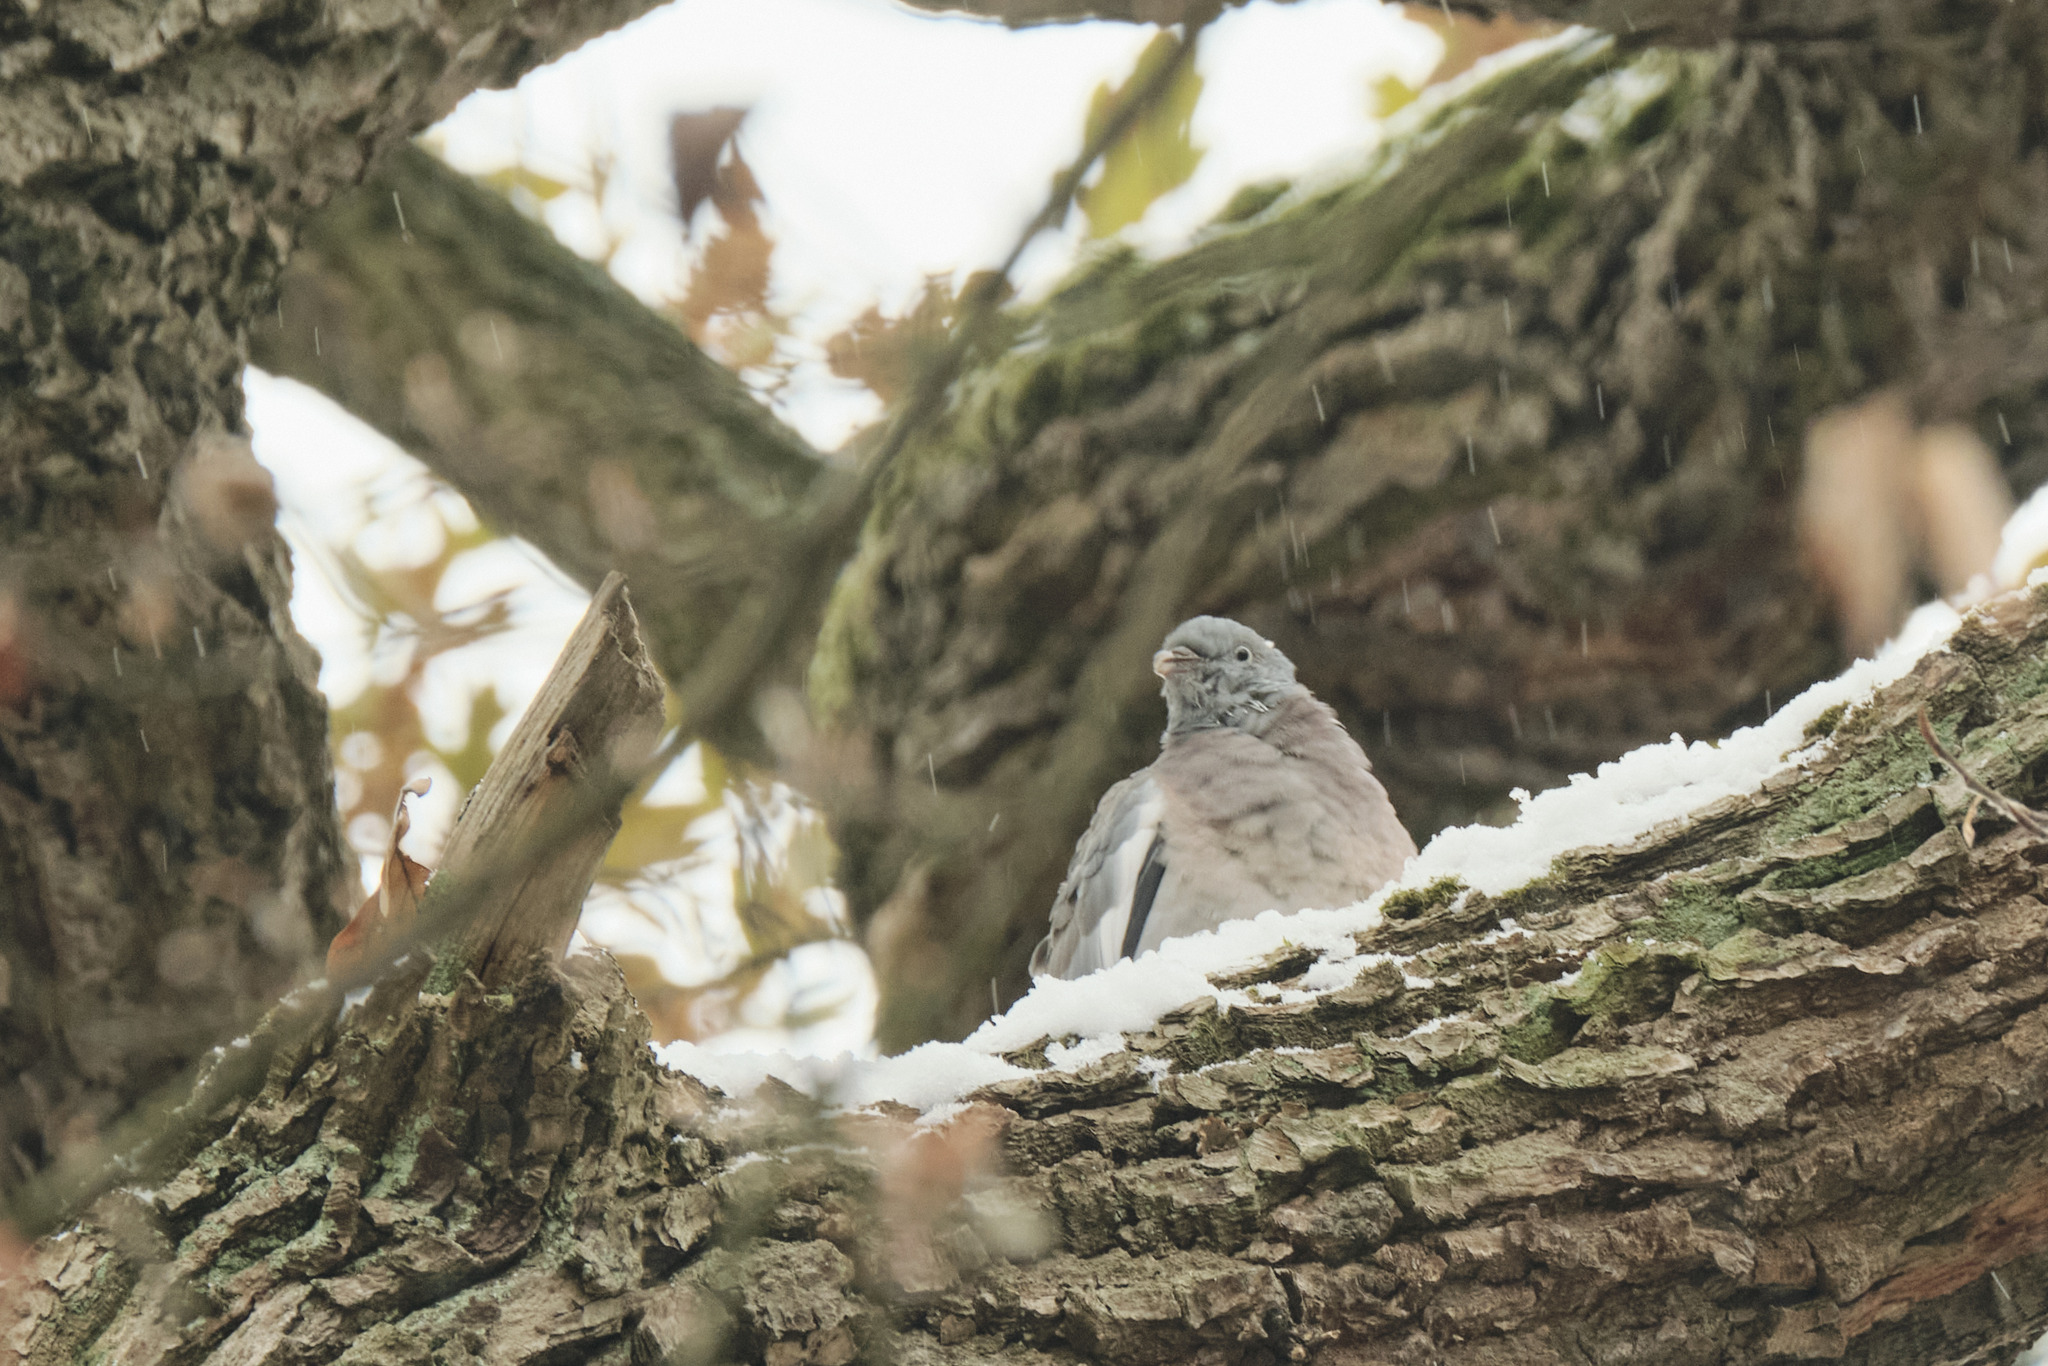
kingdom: Animalia
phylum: Chordata
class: Aves
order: Columbiformes
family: Columbidae
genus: Columba
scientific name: Columba palumbus
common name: Common wood pigeon
